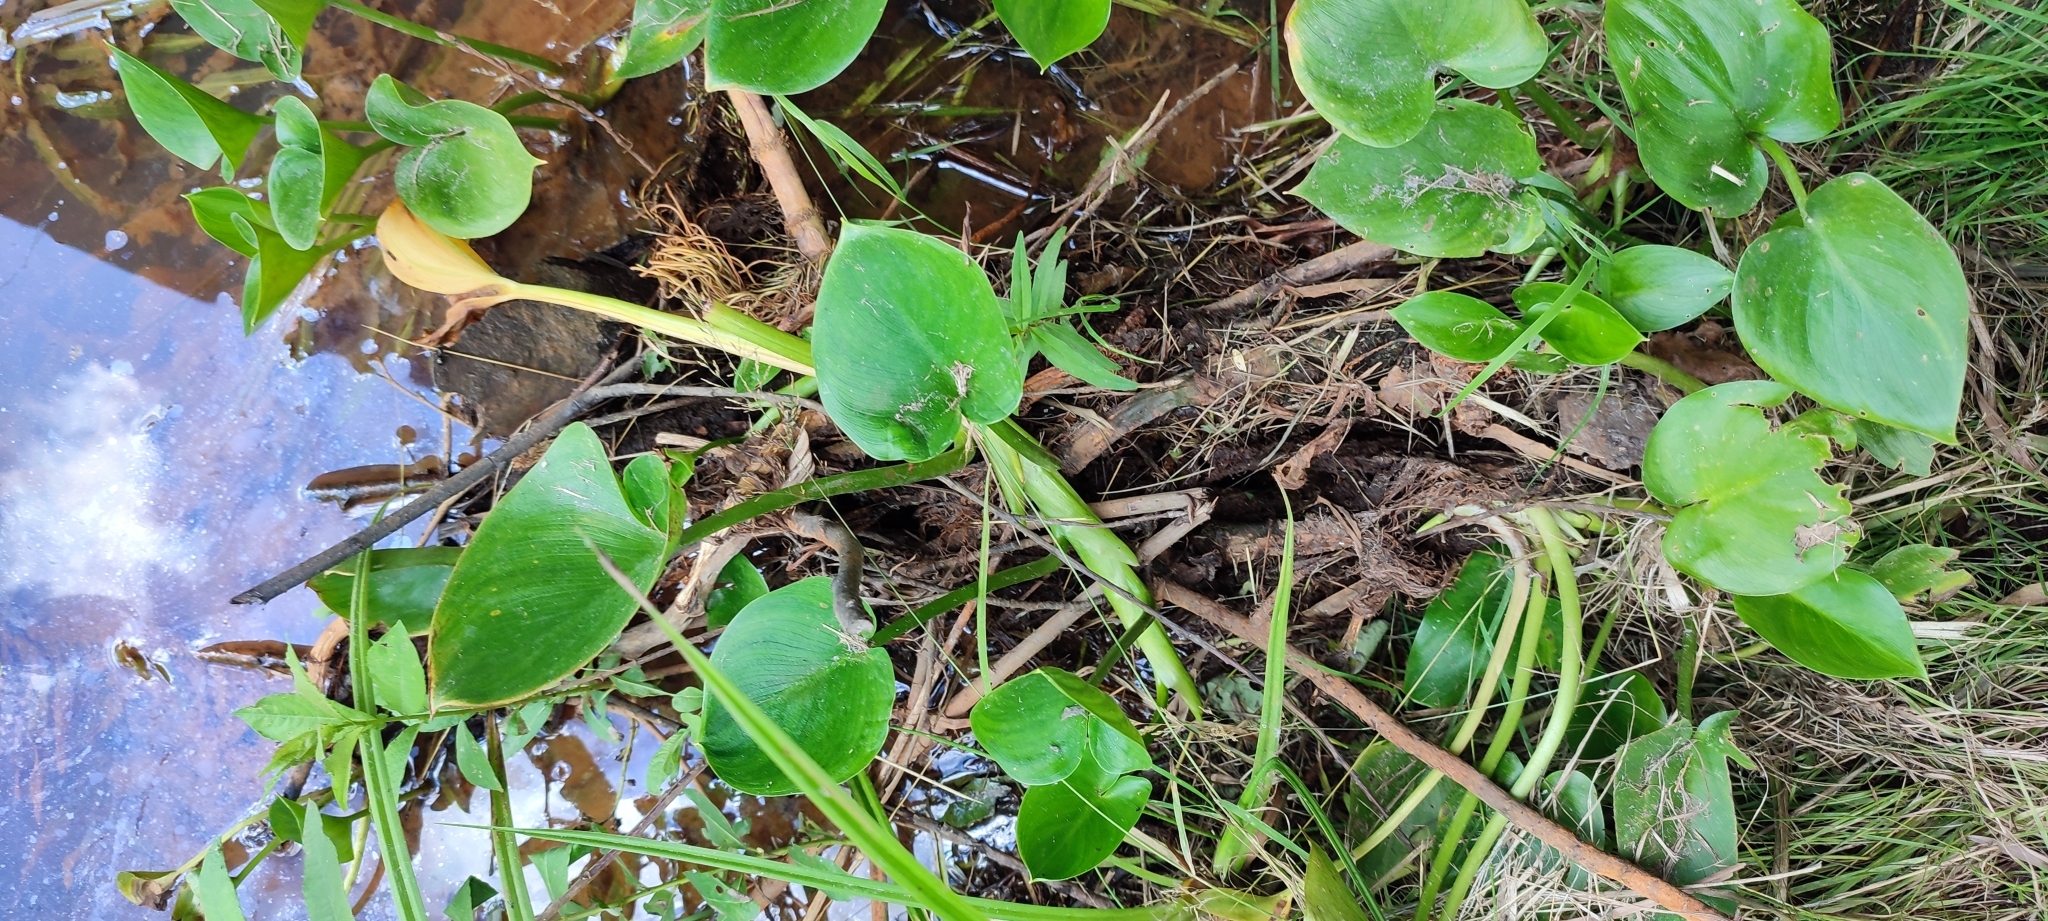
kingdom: Plantae
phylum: Tracheophyta
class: Liliopsida
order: Alismatales
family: Araceae
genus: Calla
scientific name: Calla palustris
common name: Bog arum
